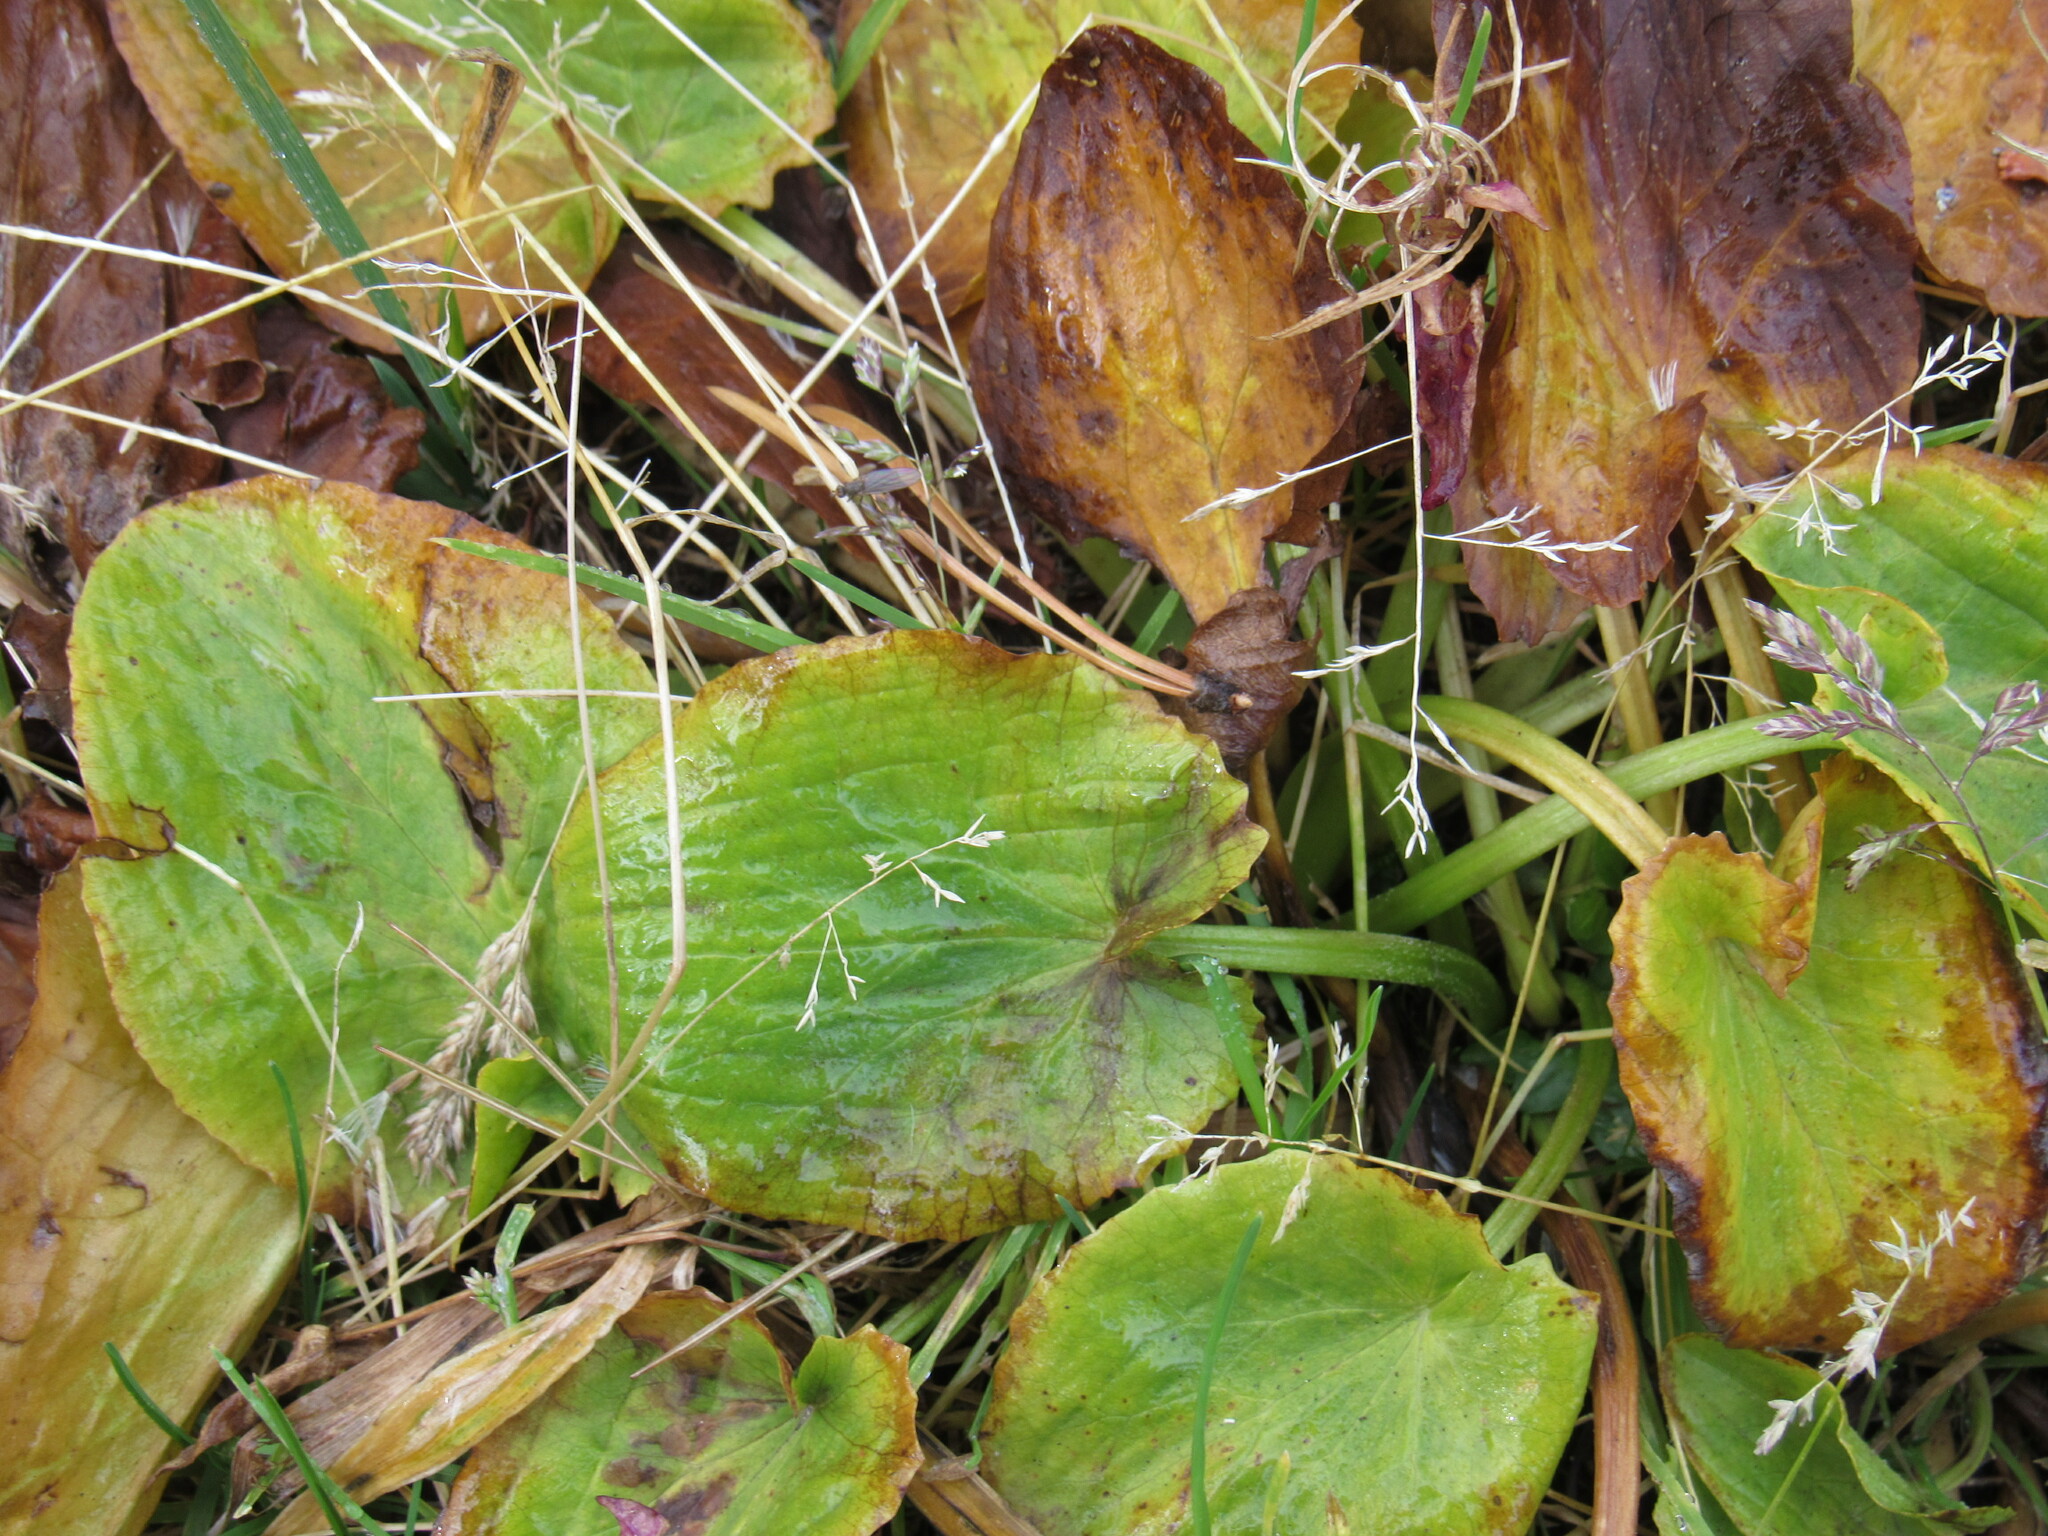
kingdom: Plantae
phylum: Tracheophyta
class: Magnoliopsida
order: Ranunculales
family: Ranunculaceae
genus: Caltha
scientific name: Caltha leptosepala
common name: Elkslip
